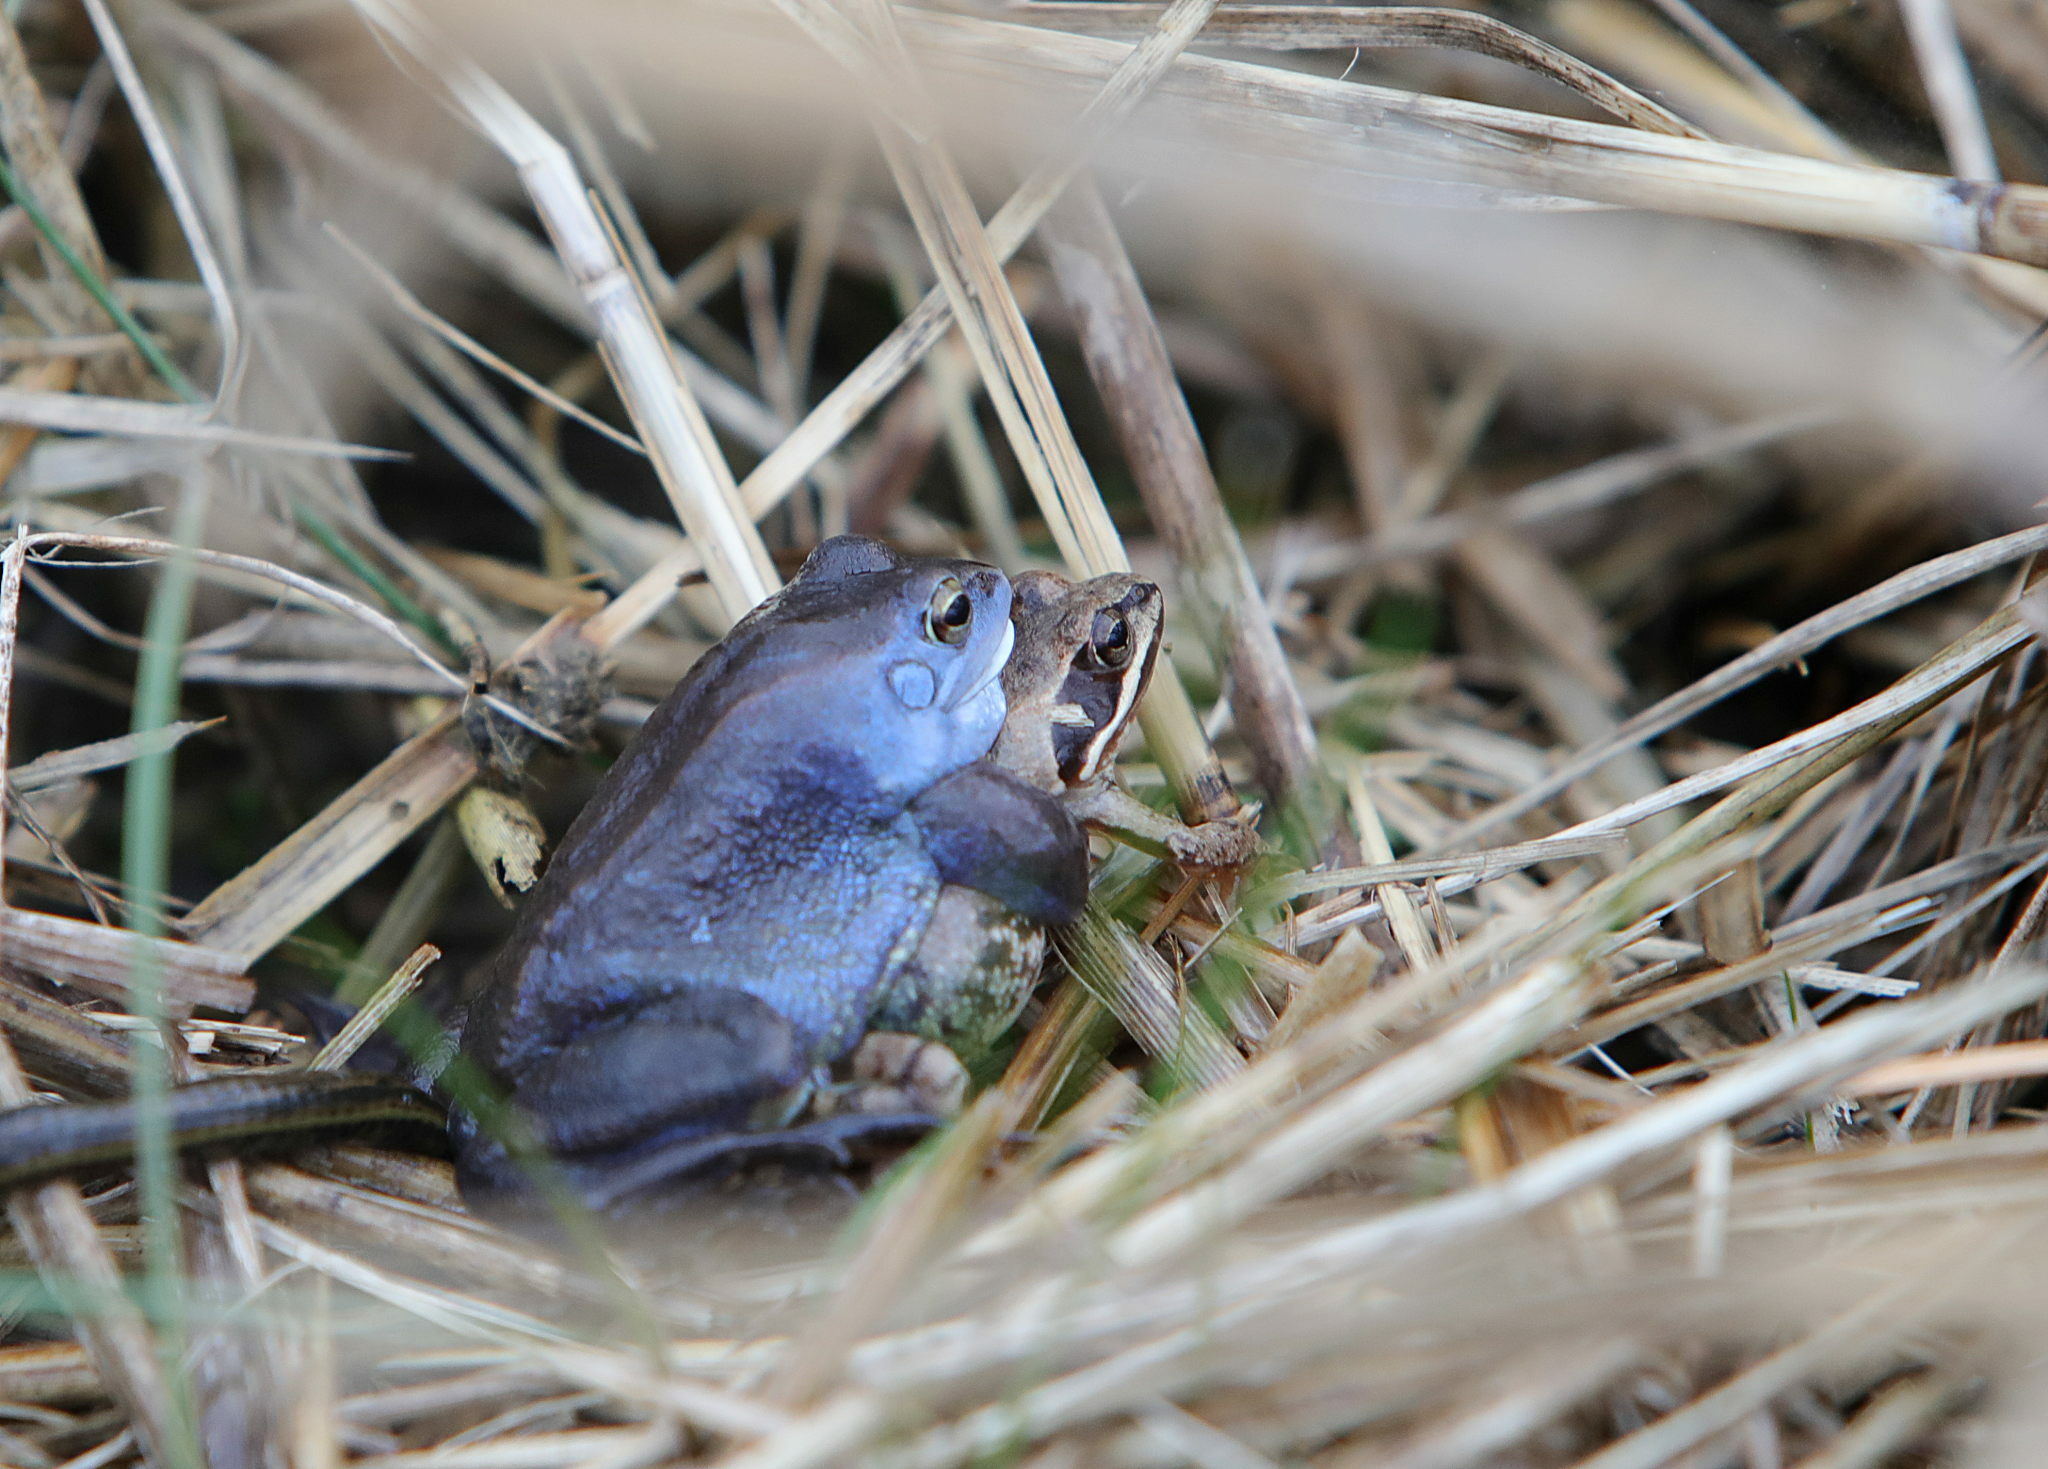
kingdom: Animalia
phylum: Chordata
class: Amphibia
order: Anura
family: Ranidae
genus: Rana
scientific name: Rana arvalis
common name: Moor frog
